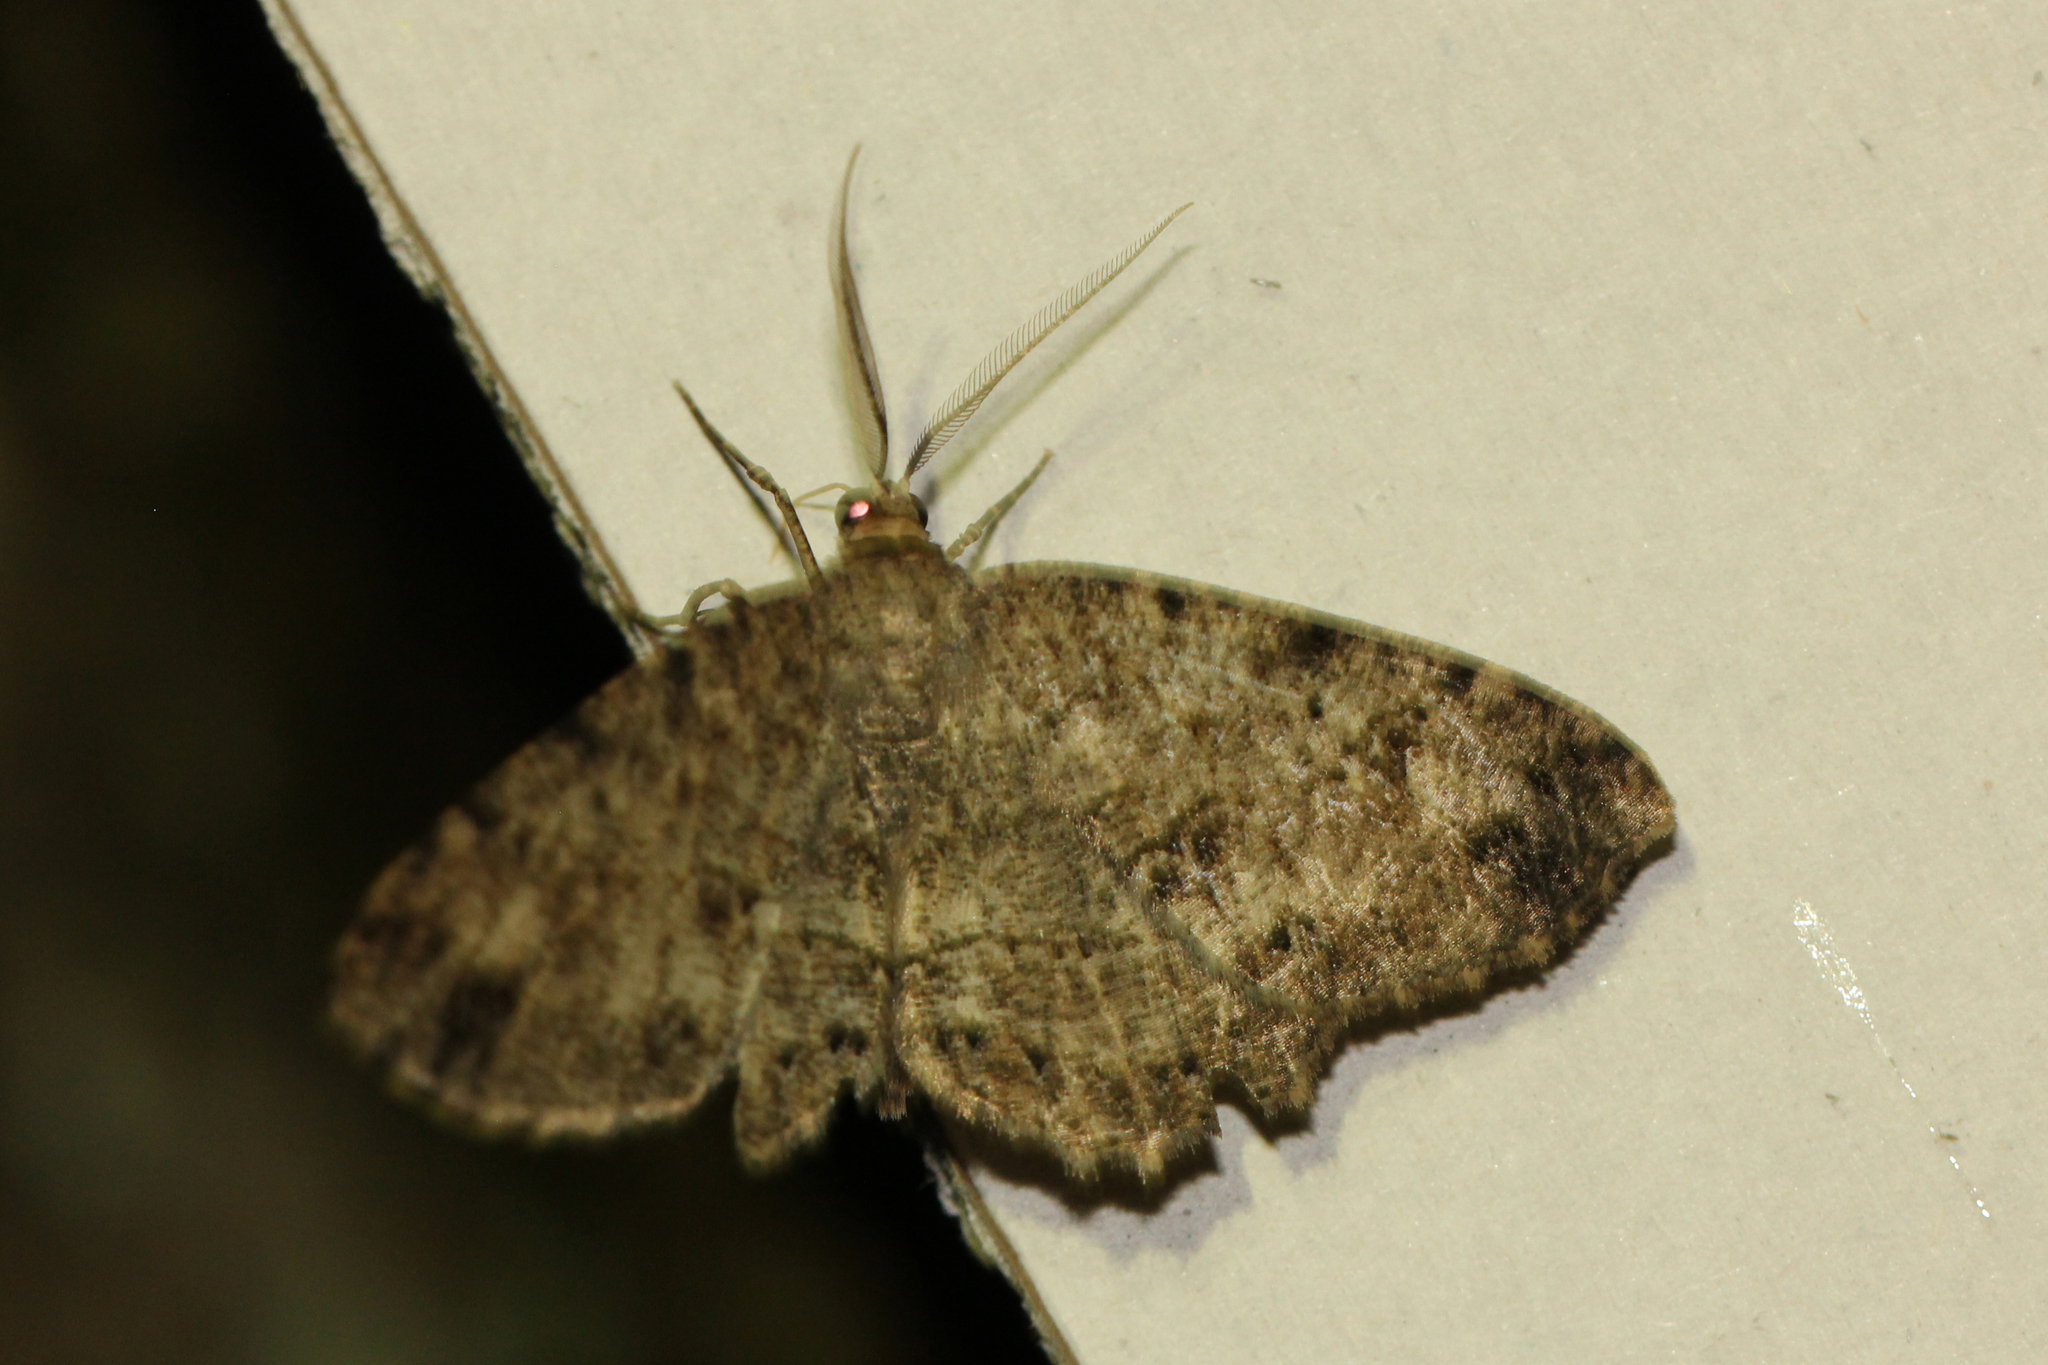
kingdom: Animalia
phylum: Arthropoda
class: Insecta
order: Lepidoptera
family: Geometridae
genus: Melanolophia
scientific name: Melanolophia canadaria
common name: Canadian melanolophia
